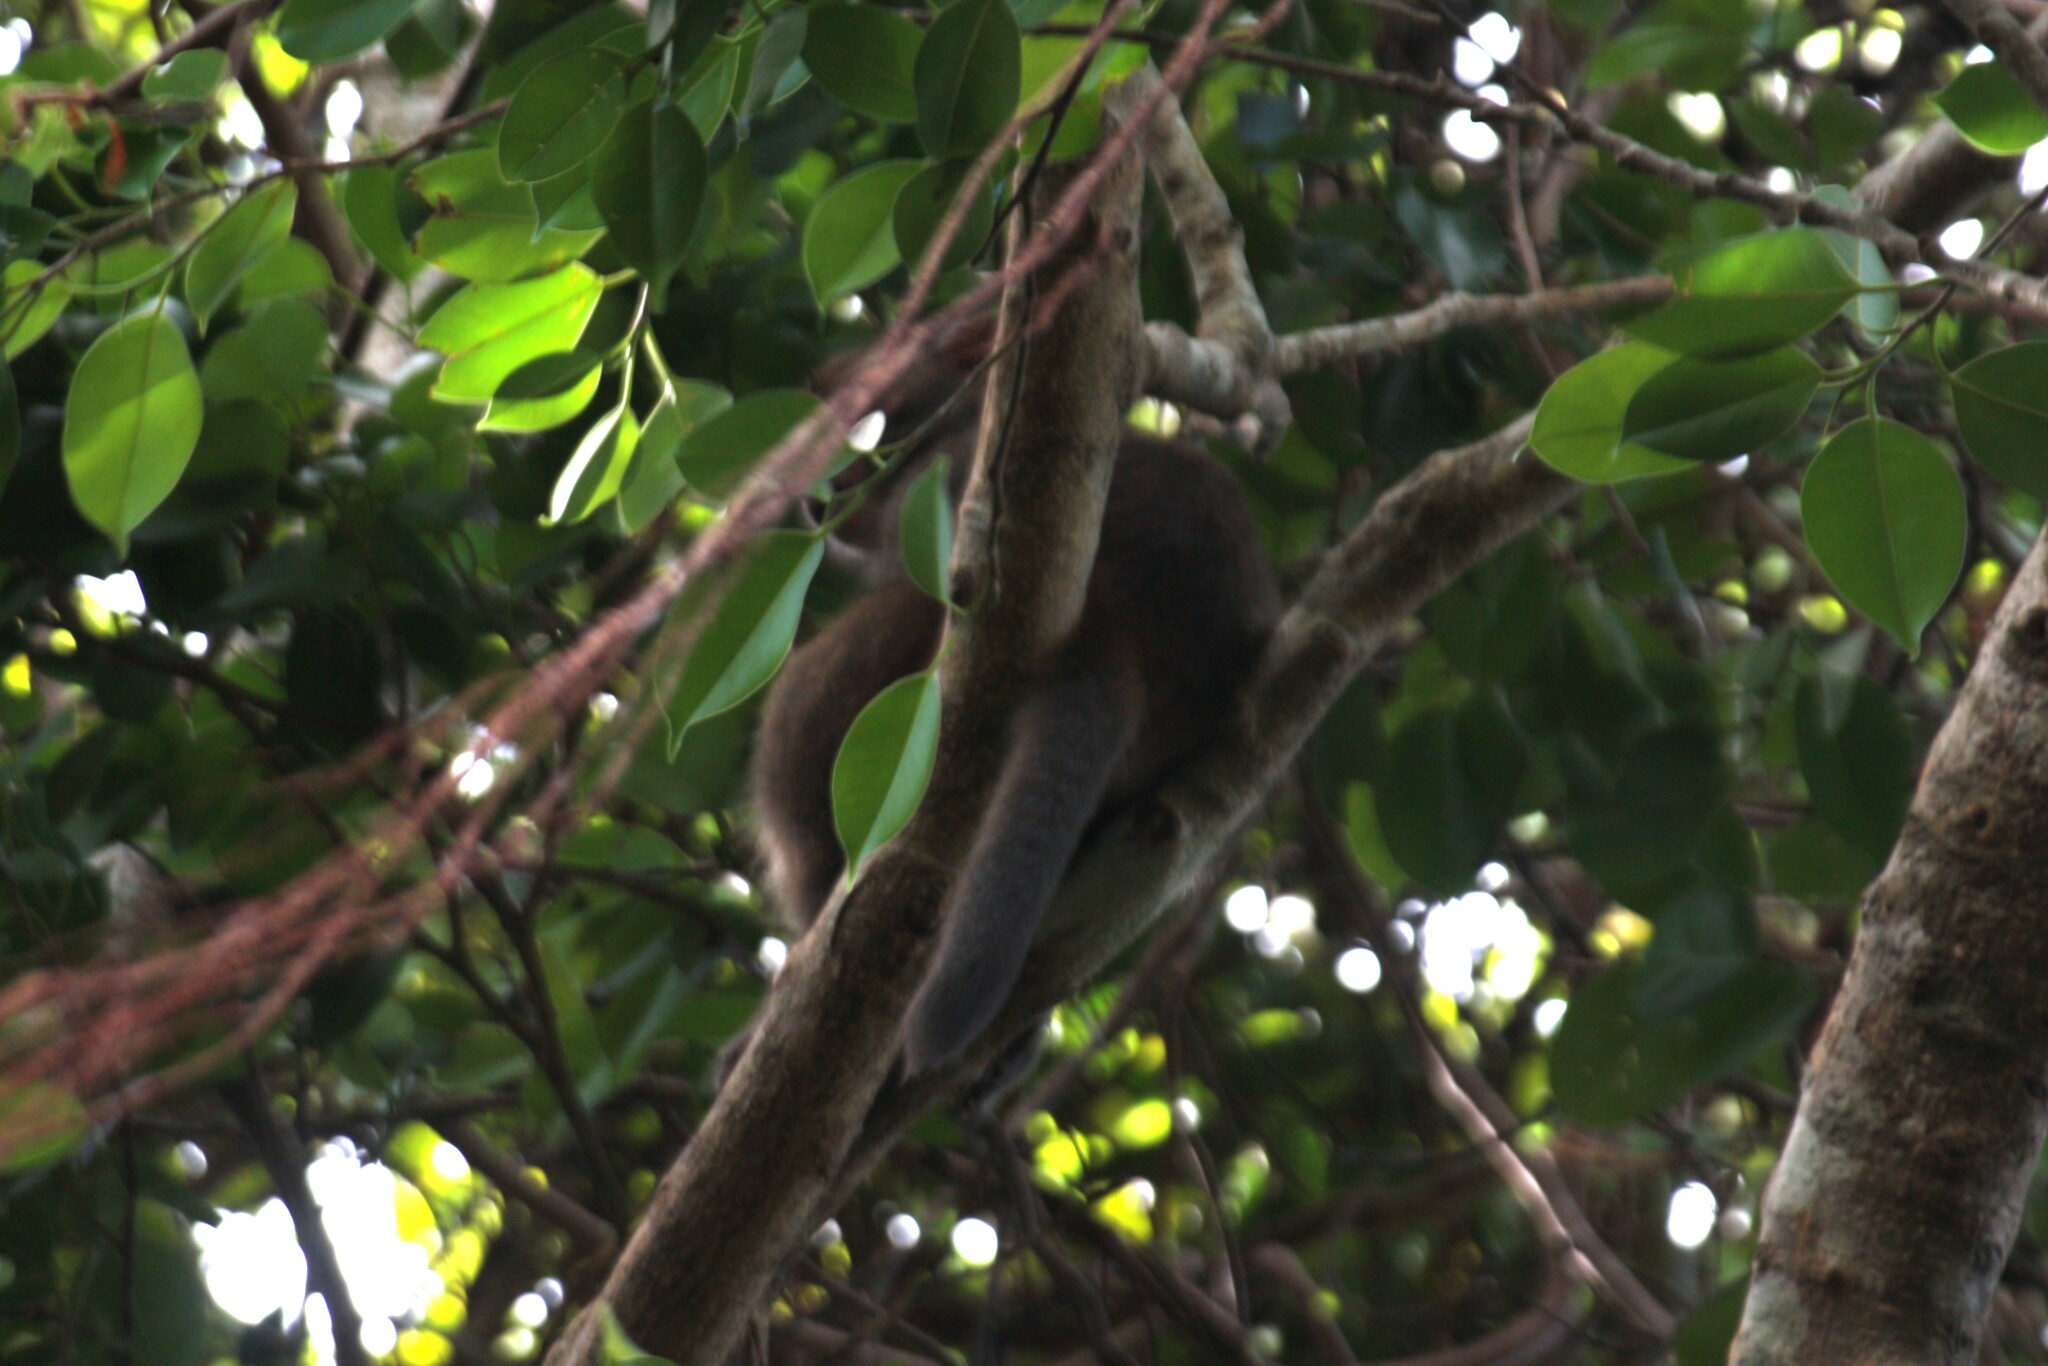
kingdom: Animalia
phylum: Chordata
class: Mammalia
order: Primates
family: Cercopithecidae
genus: Macaca
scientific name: Macaca cyclopis
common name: Formosan rock macaque
